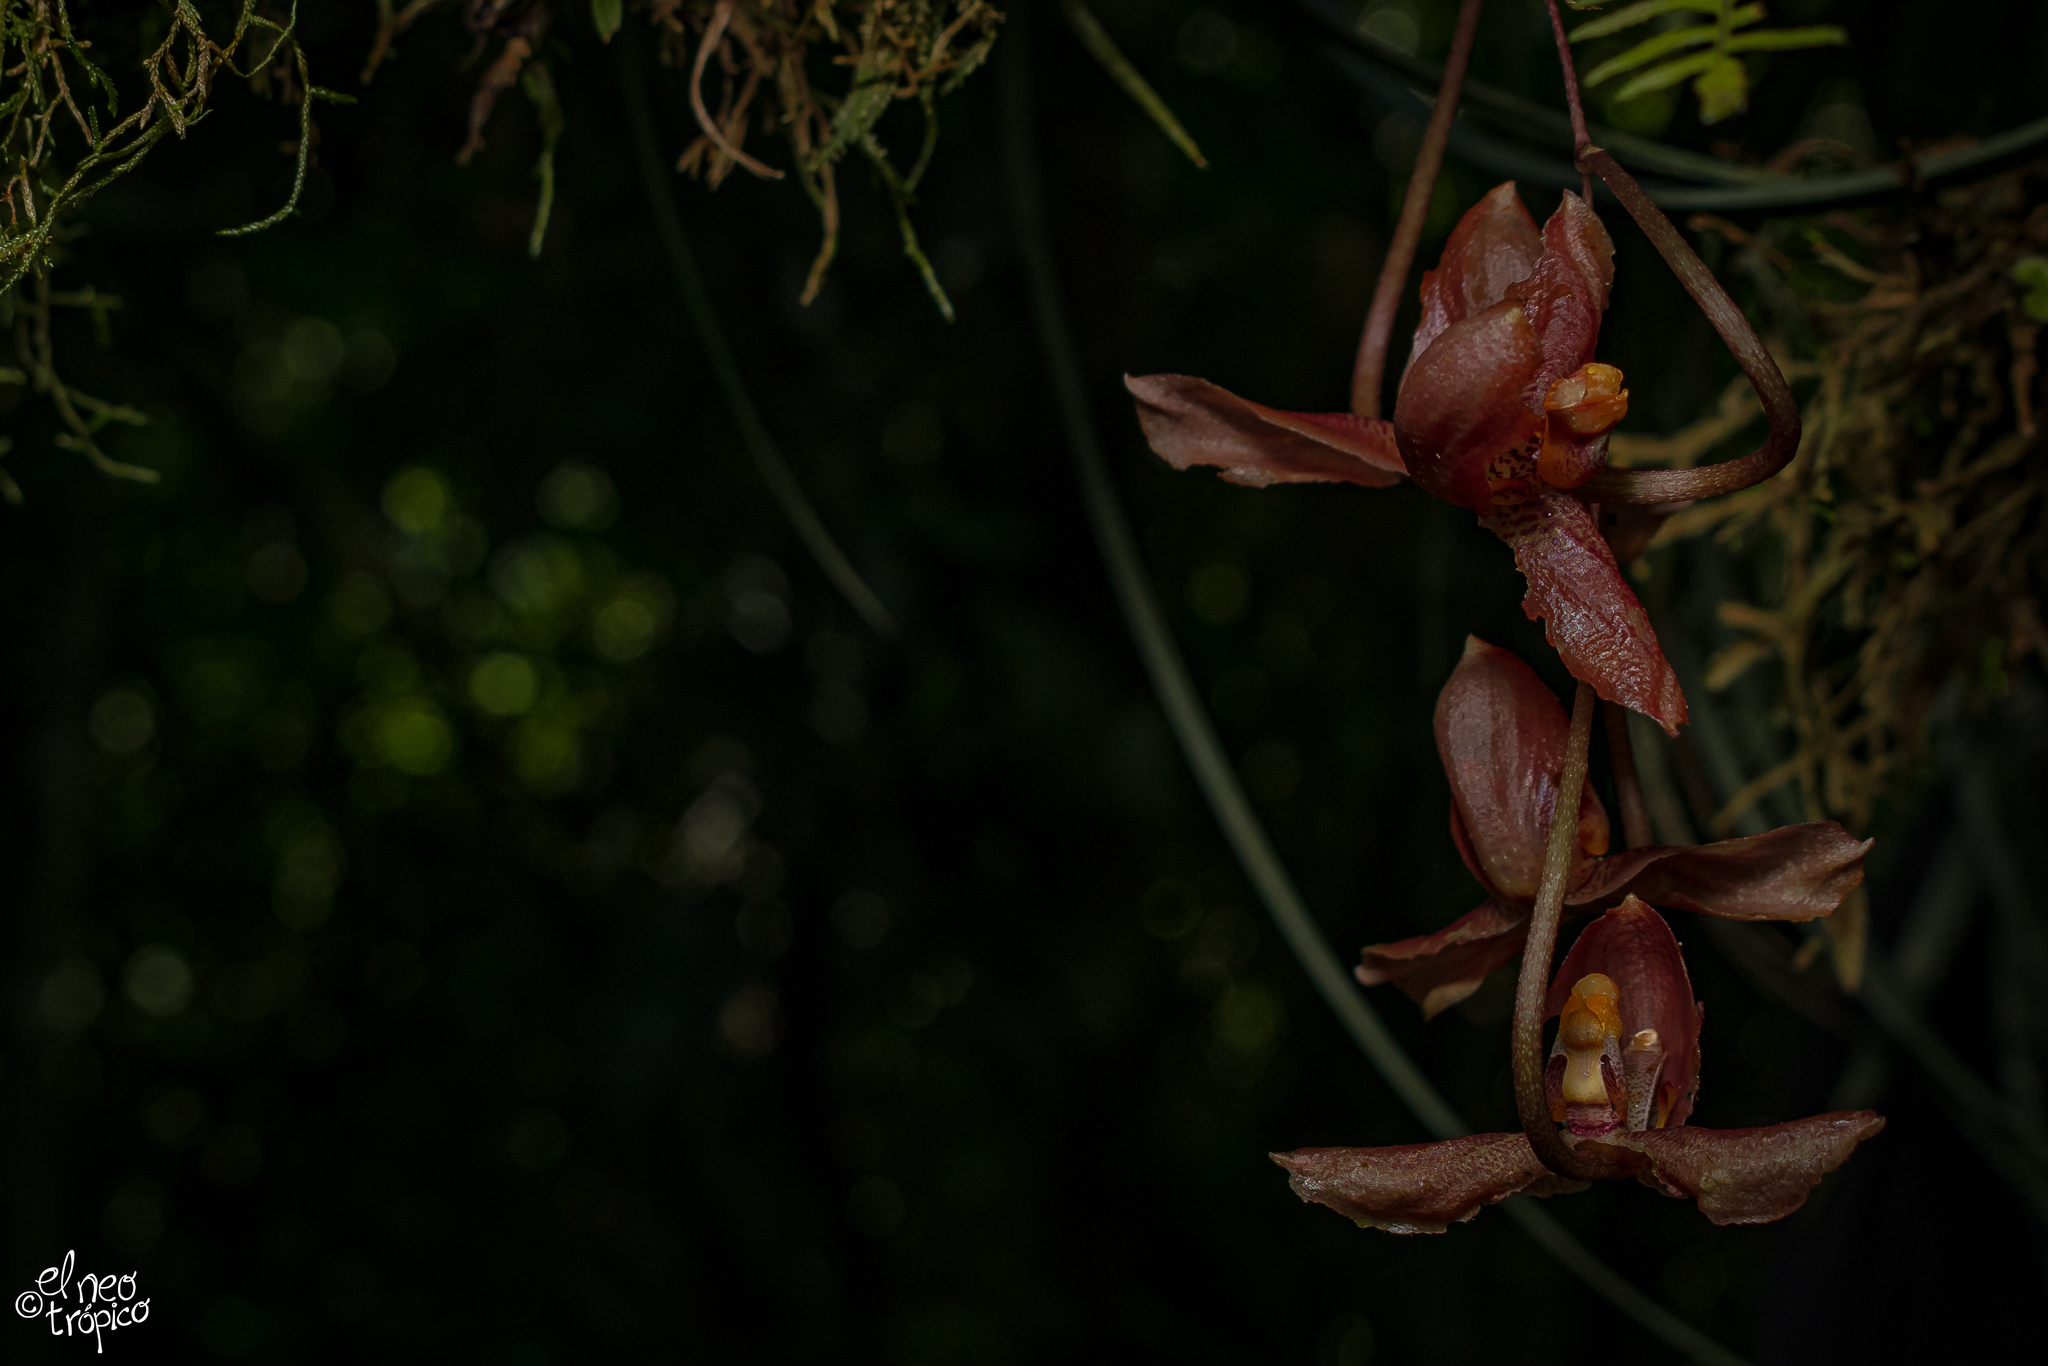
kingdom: Plantae
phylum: Tracheophyta
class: Liliopsida
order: Asparagales
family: Orchidaceae
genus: Gongora
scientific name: Gongora galeata
